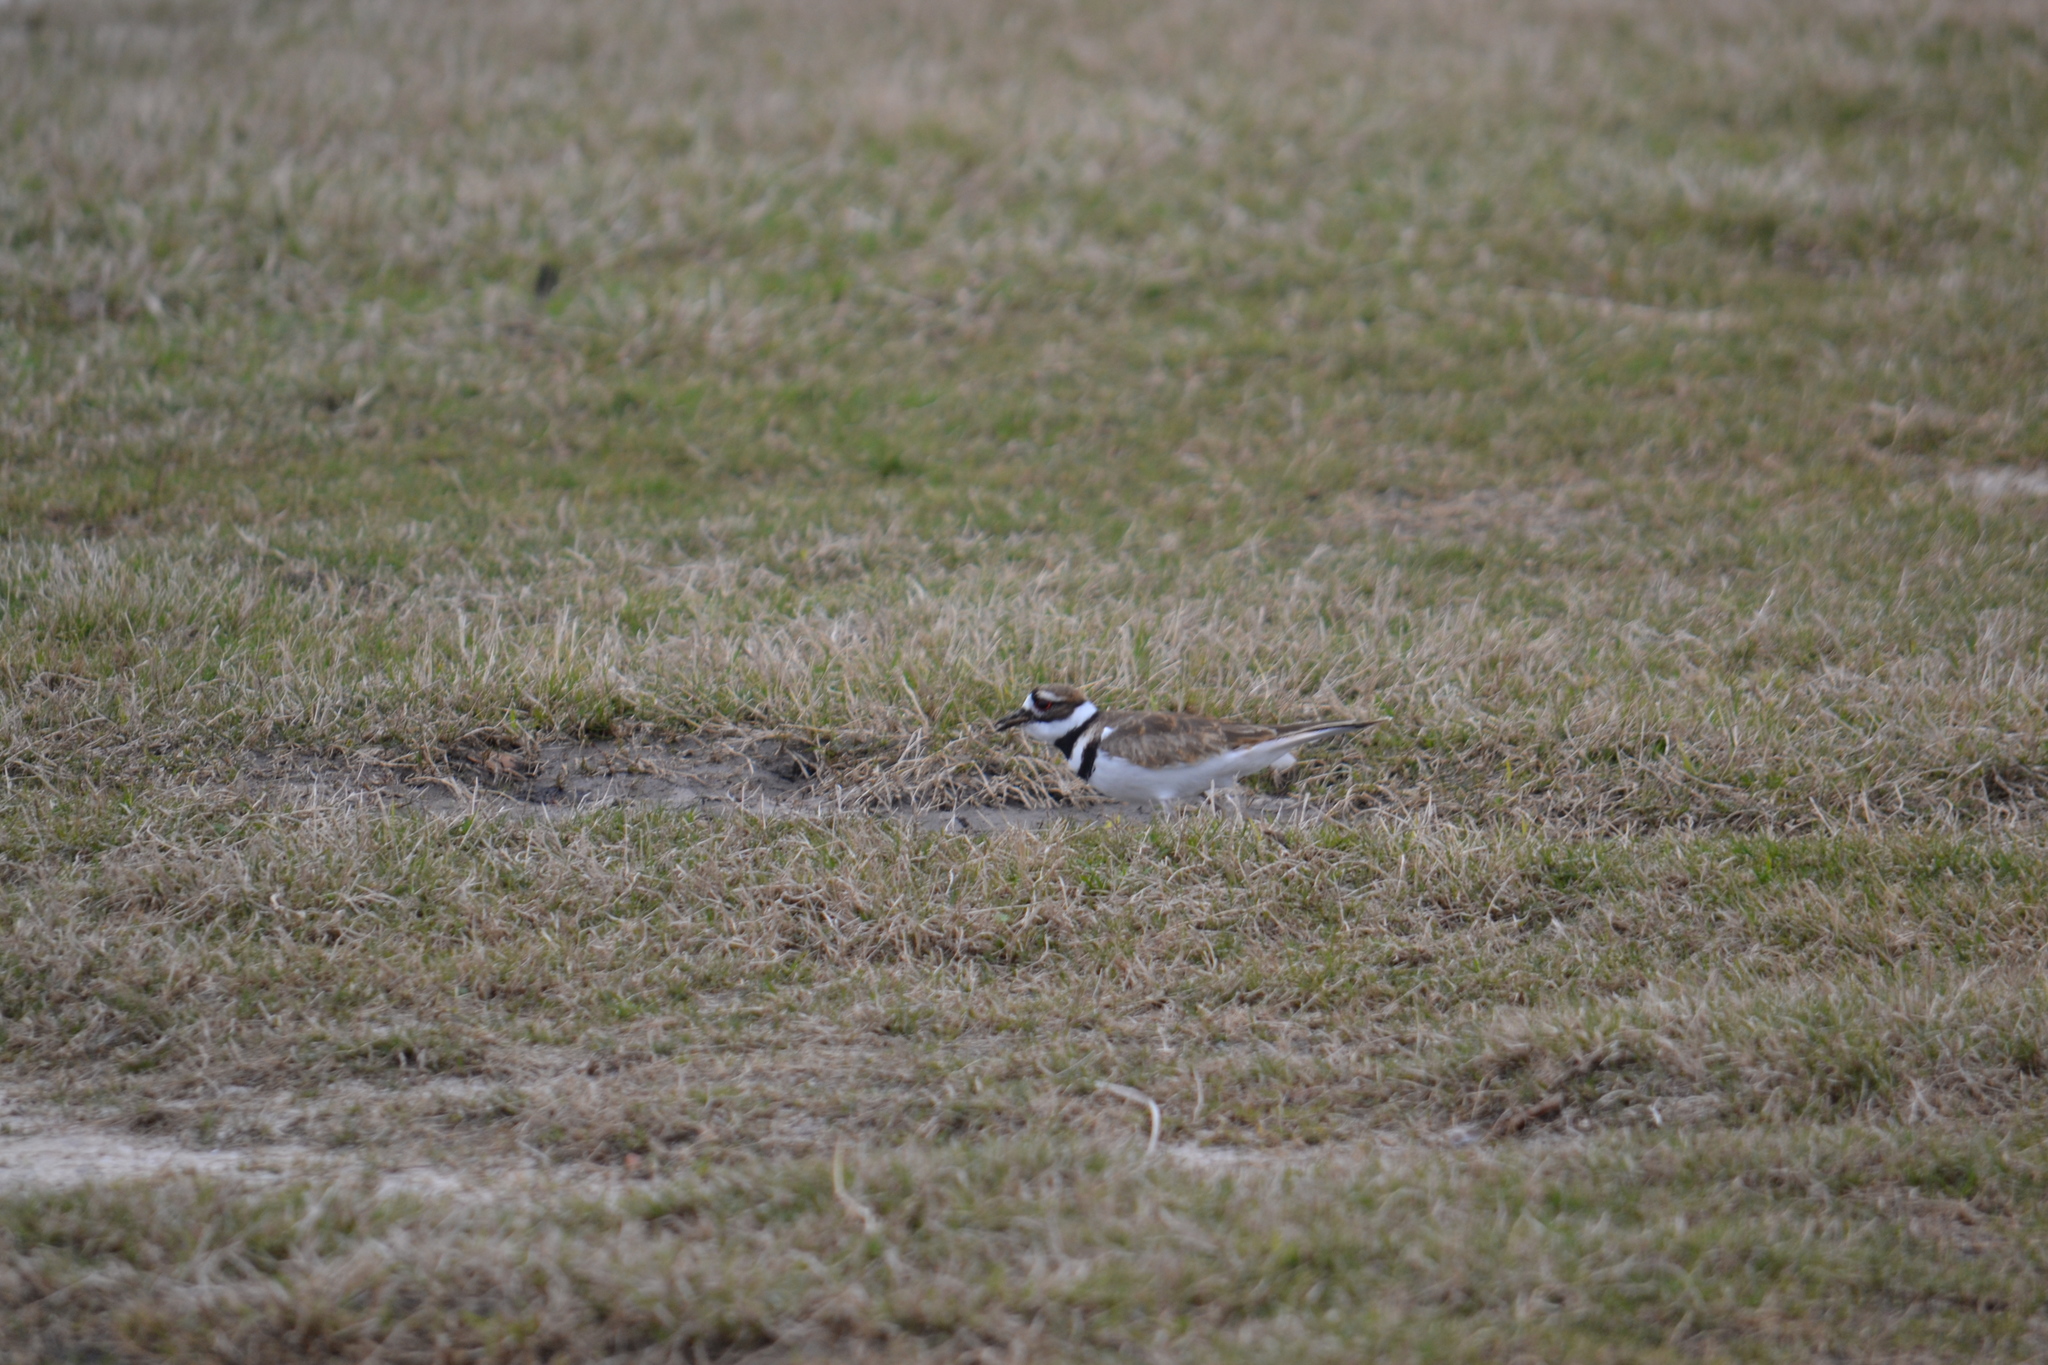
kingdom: Animalia
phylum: Chordata
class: Aves
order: Charadriiformes
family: Charadriidae
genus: Charadrius
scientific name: Charadrius vociferus
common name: Killdeer
